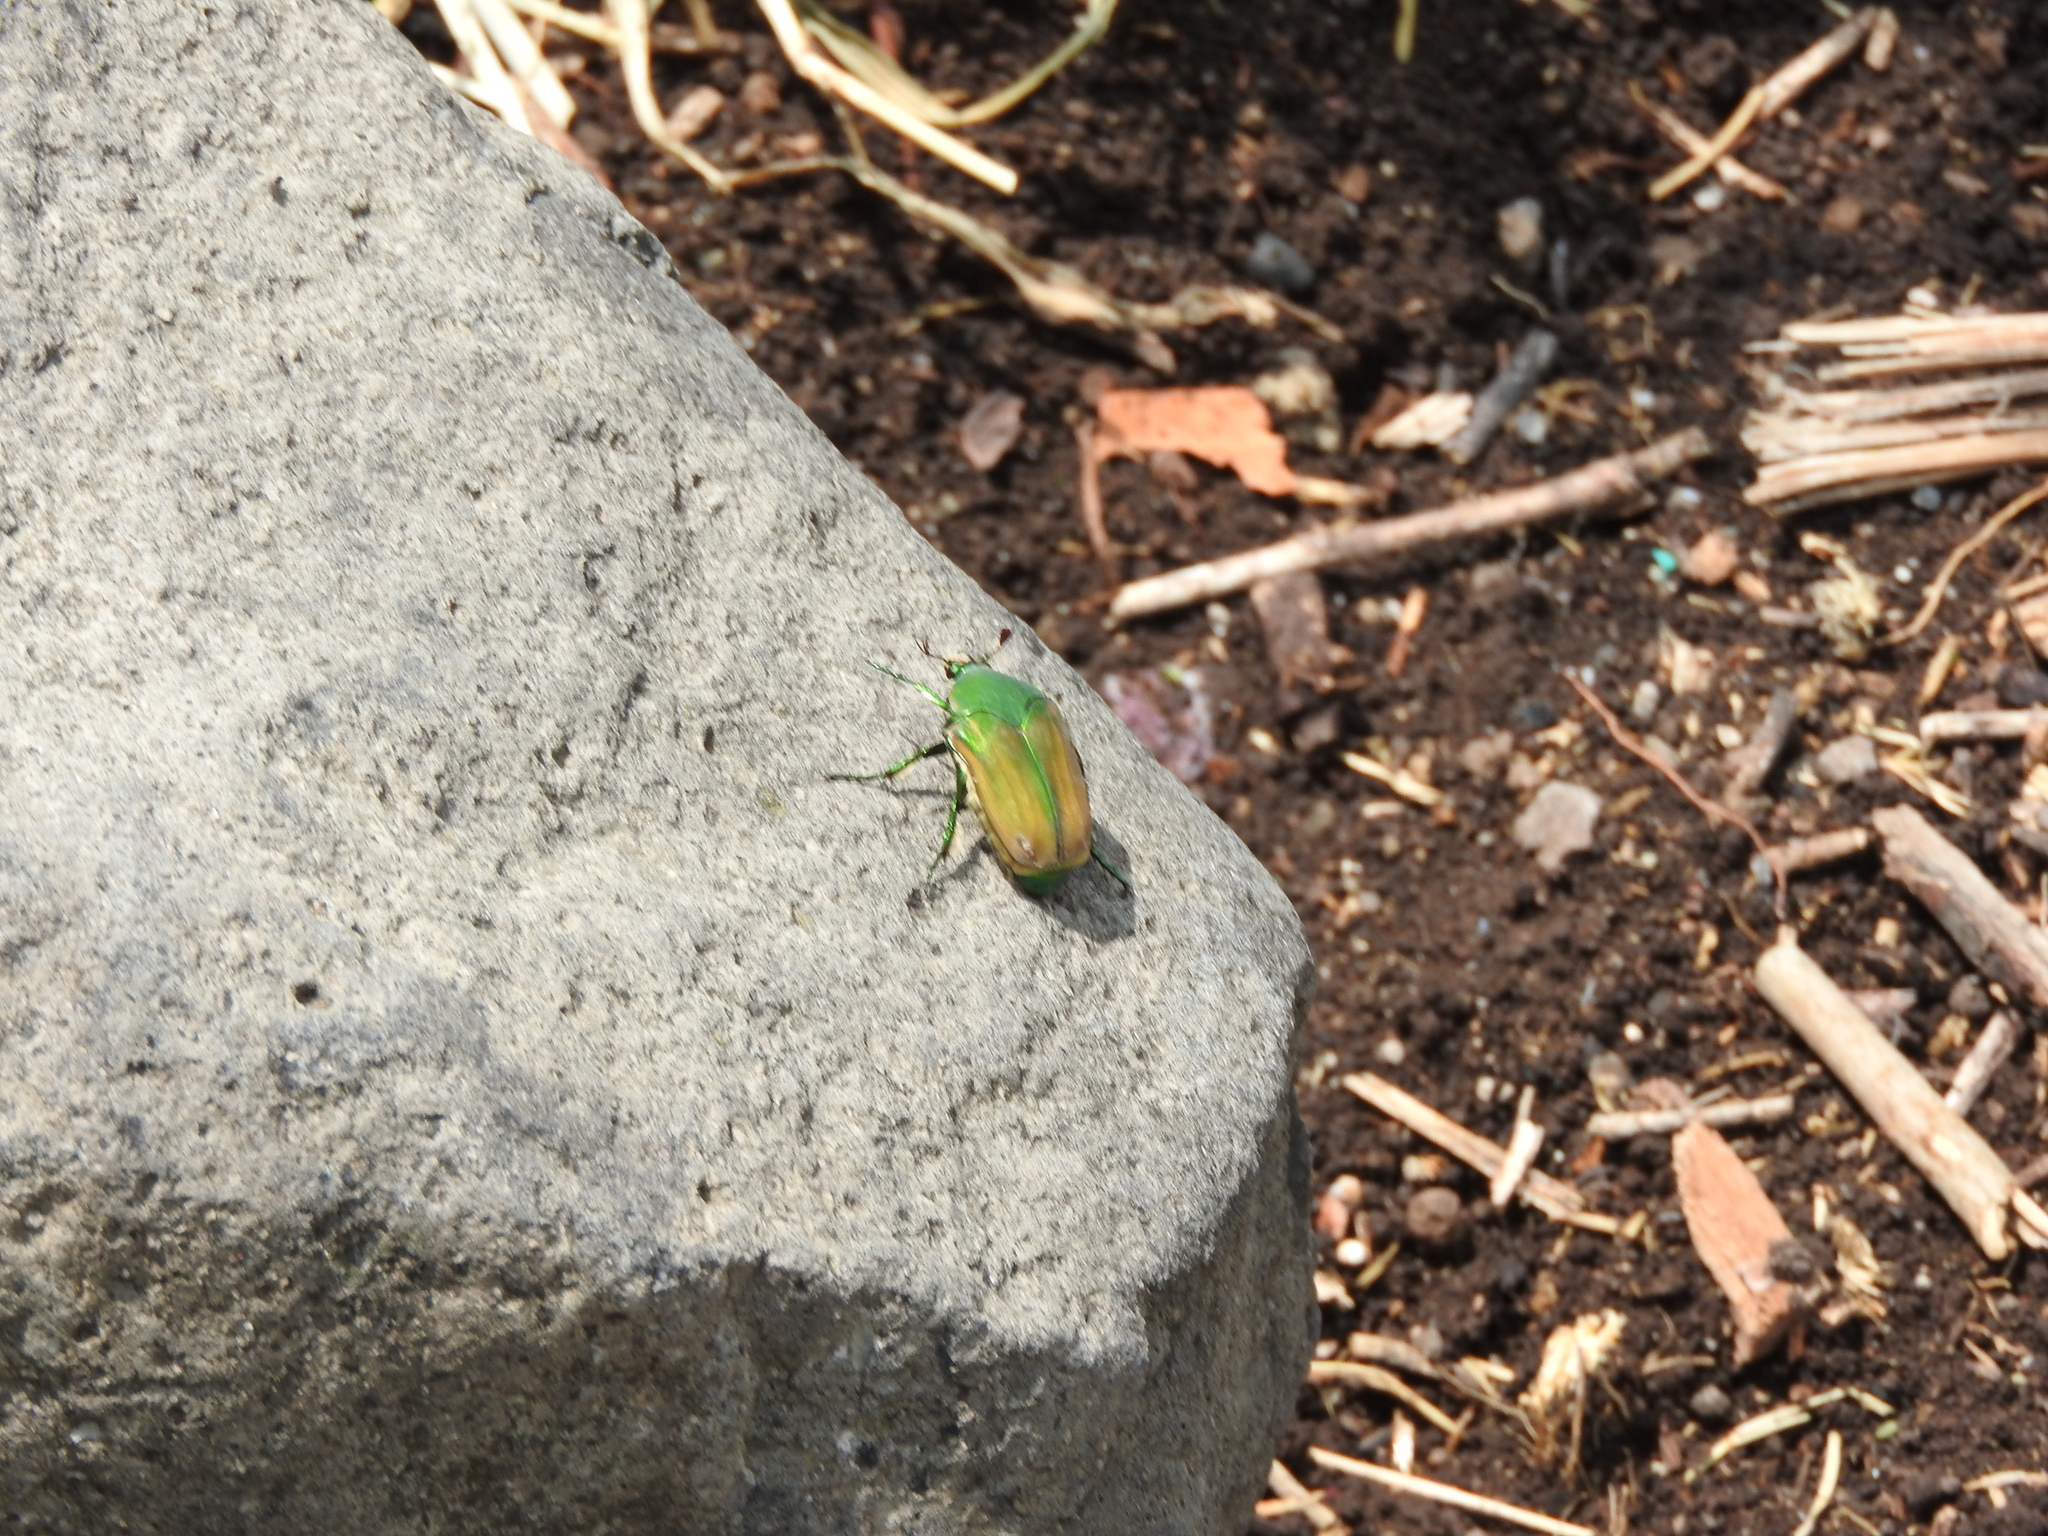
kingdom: Animalia
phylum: Arthropoda
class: Insecta
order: Coleoptera
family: Scarabaeidae
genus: Cotinis
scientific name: Cotinis mutabilis
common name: Figeater beetle
